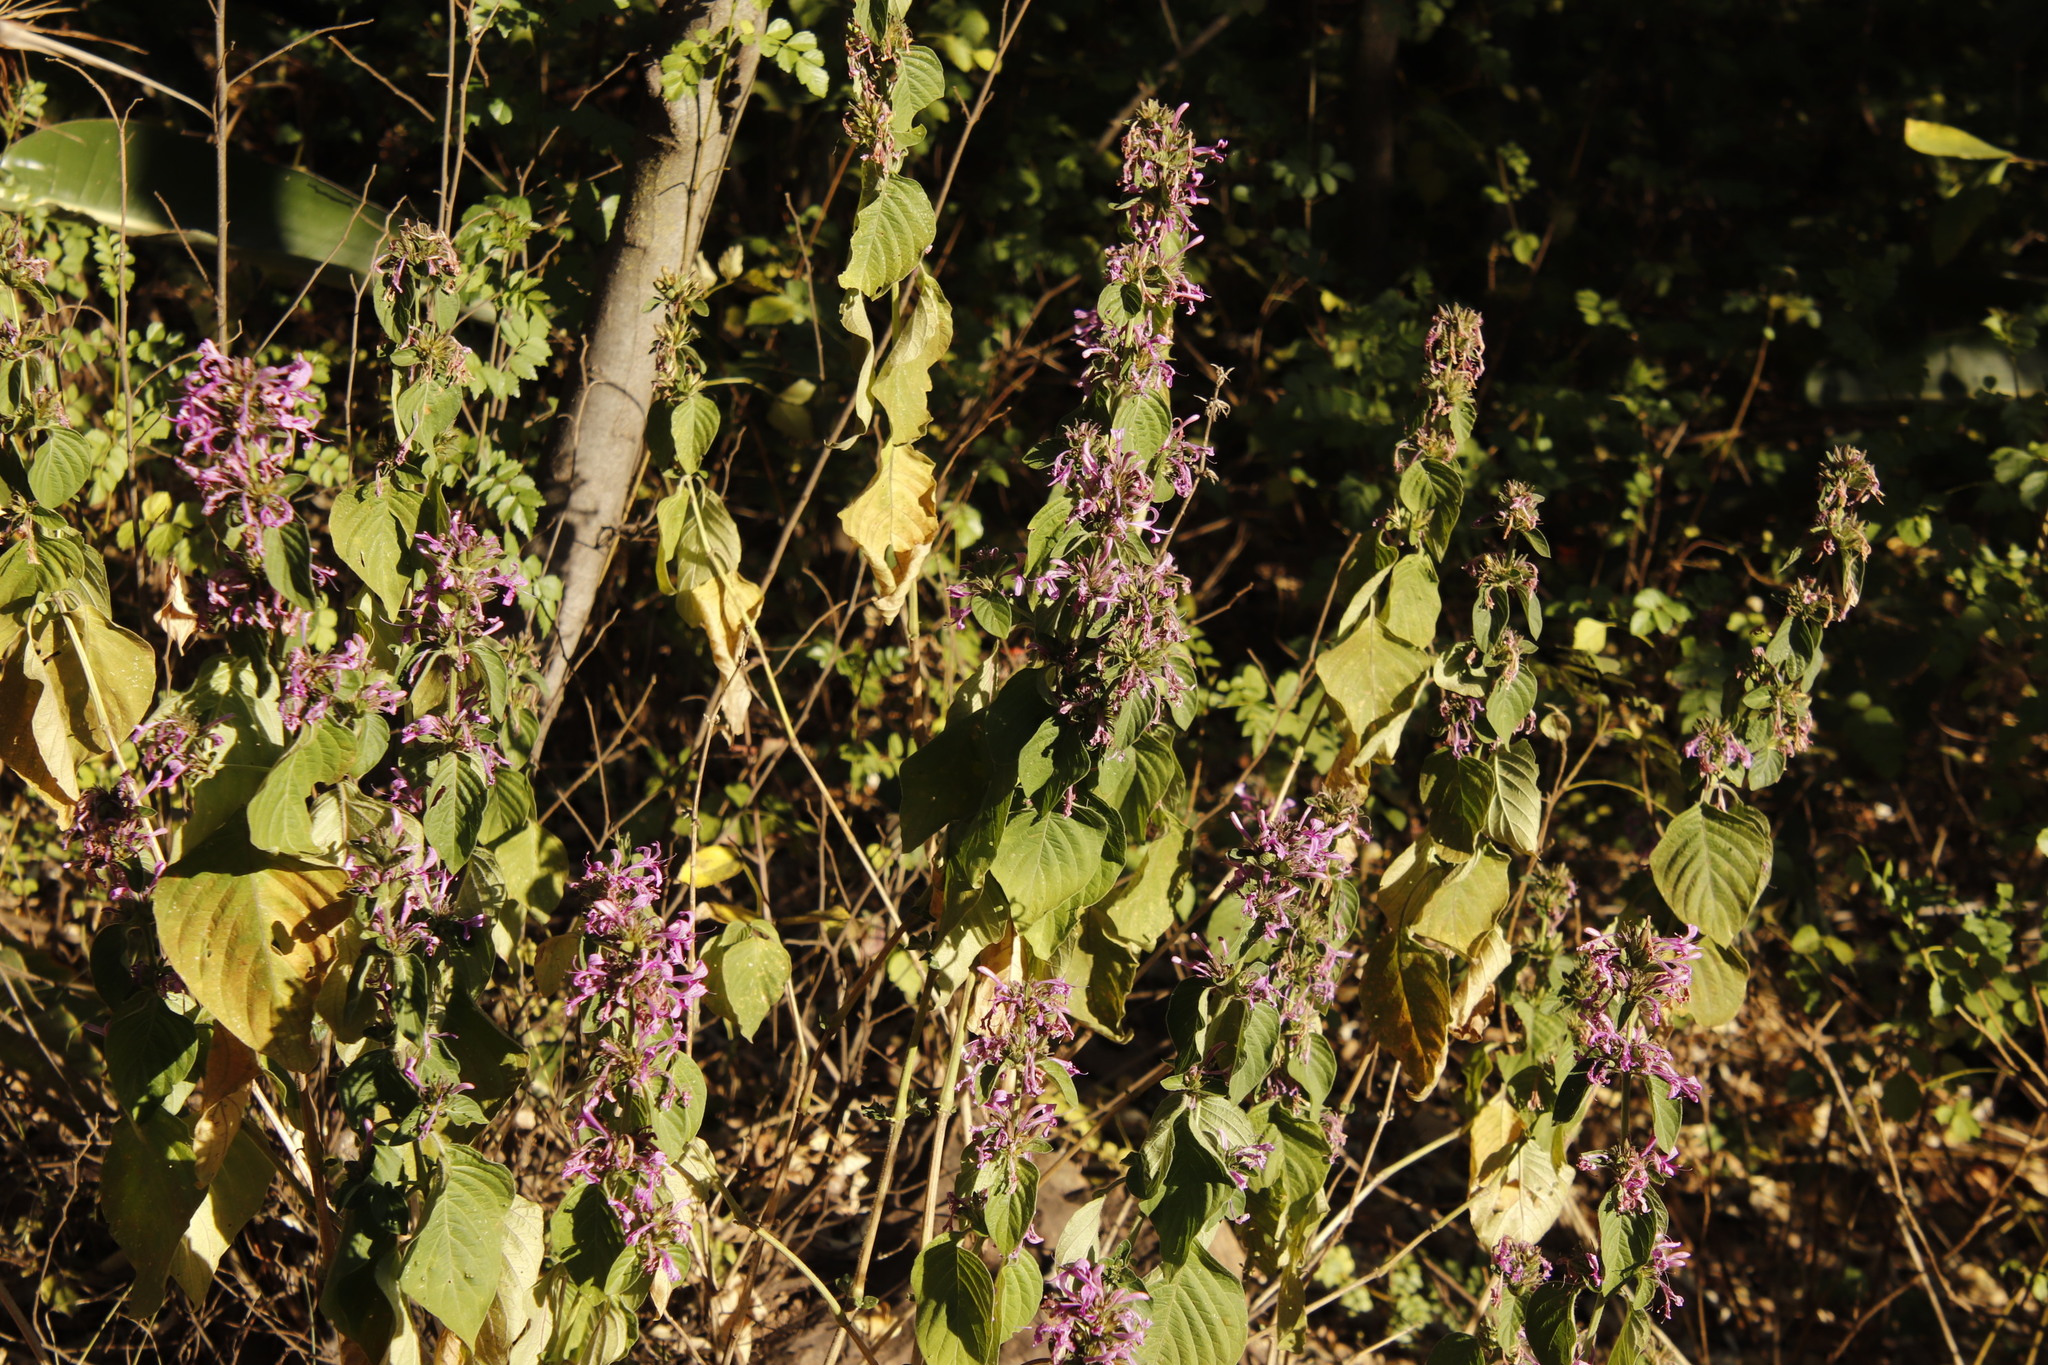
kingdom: Plantae
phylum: Tracheophyta
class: Magnoliopsida
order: Lamiales
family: Acanthaceae
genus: Hypoestes
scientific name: Hypoestes aristata
